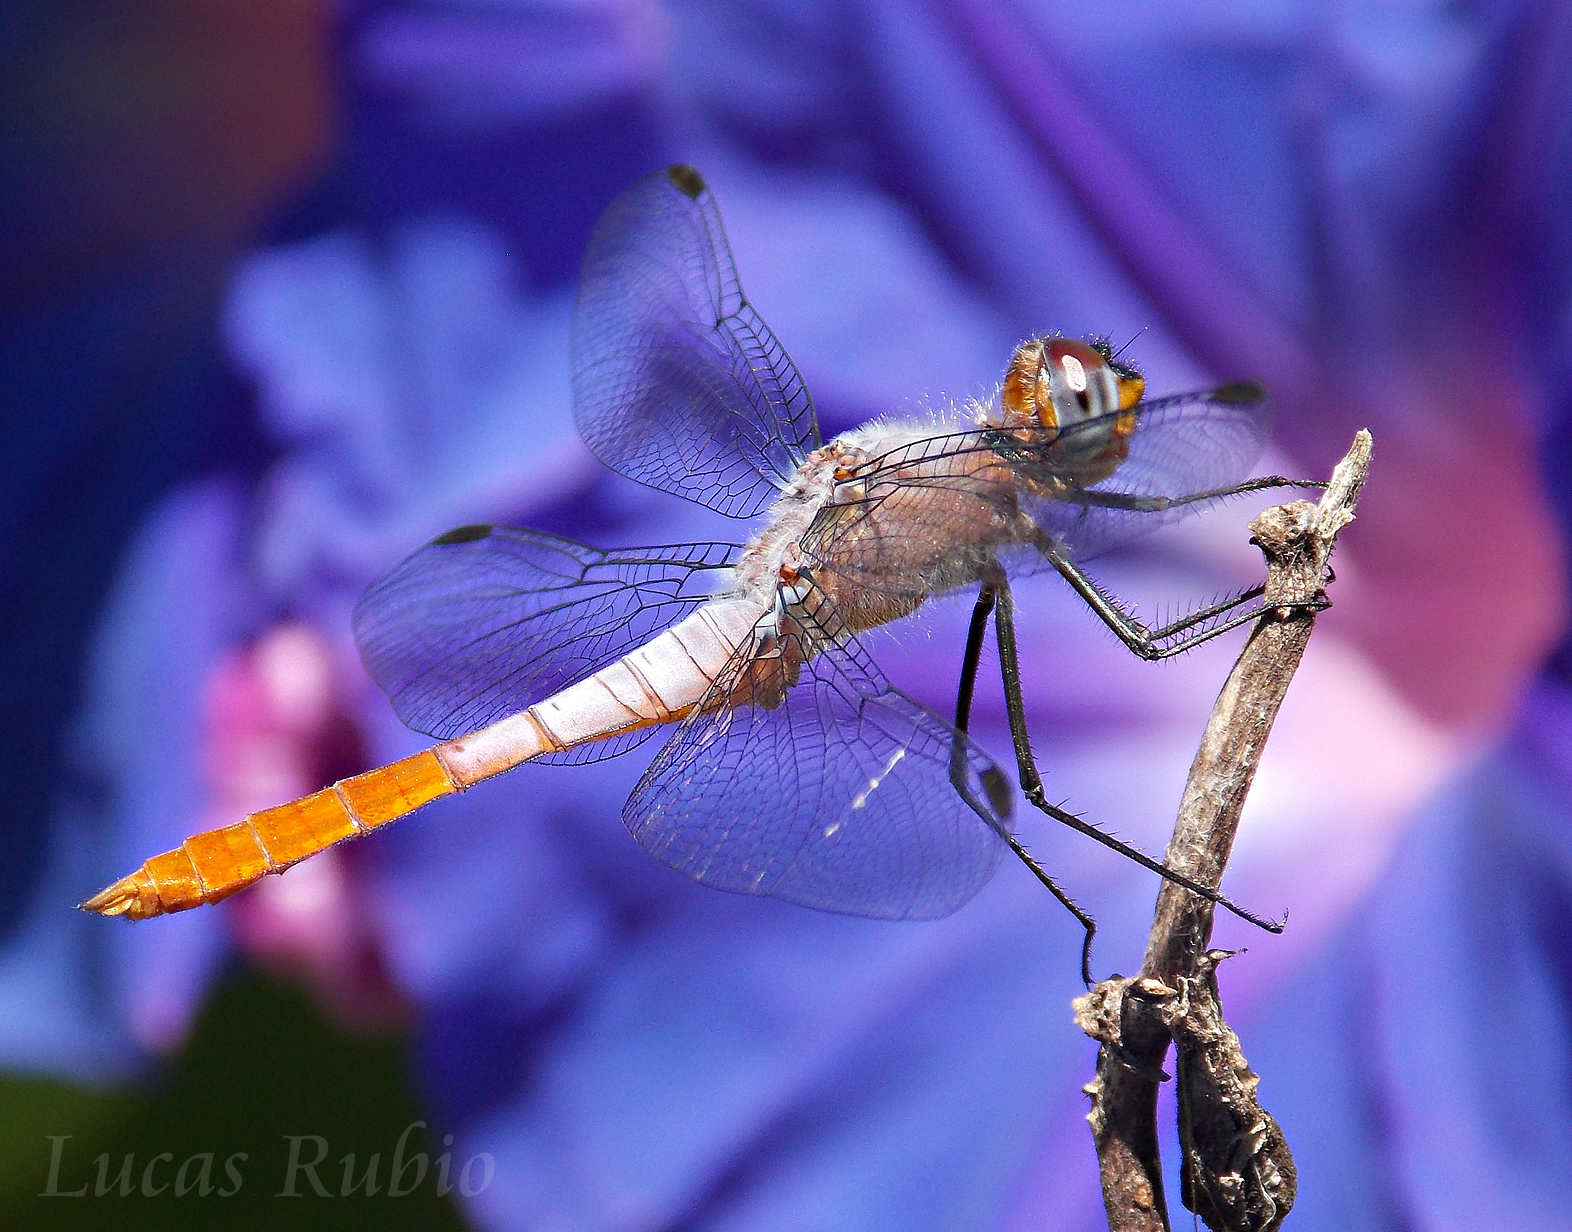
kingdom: Animalia
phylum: Arthropoda
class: Insecta
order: Odonata
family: Libellulidae
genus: Planiplax
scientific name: Planiplax erythropyga
